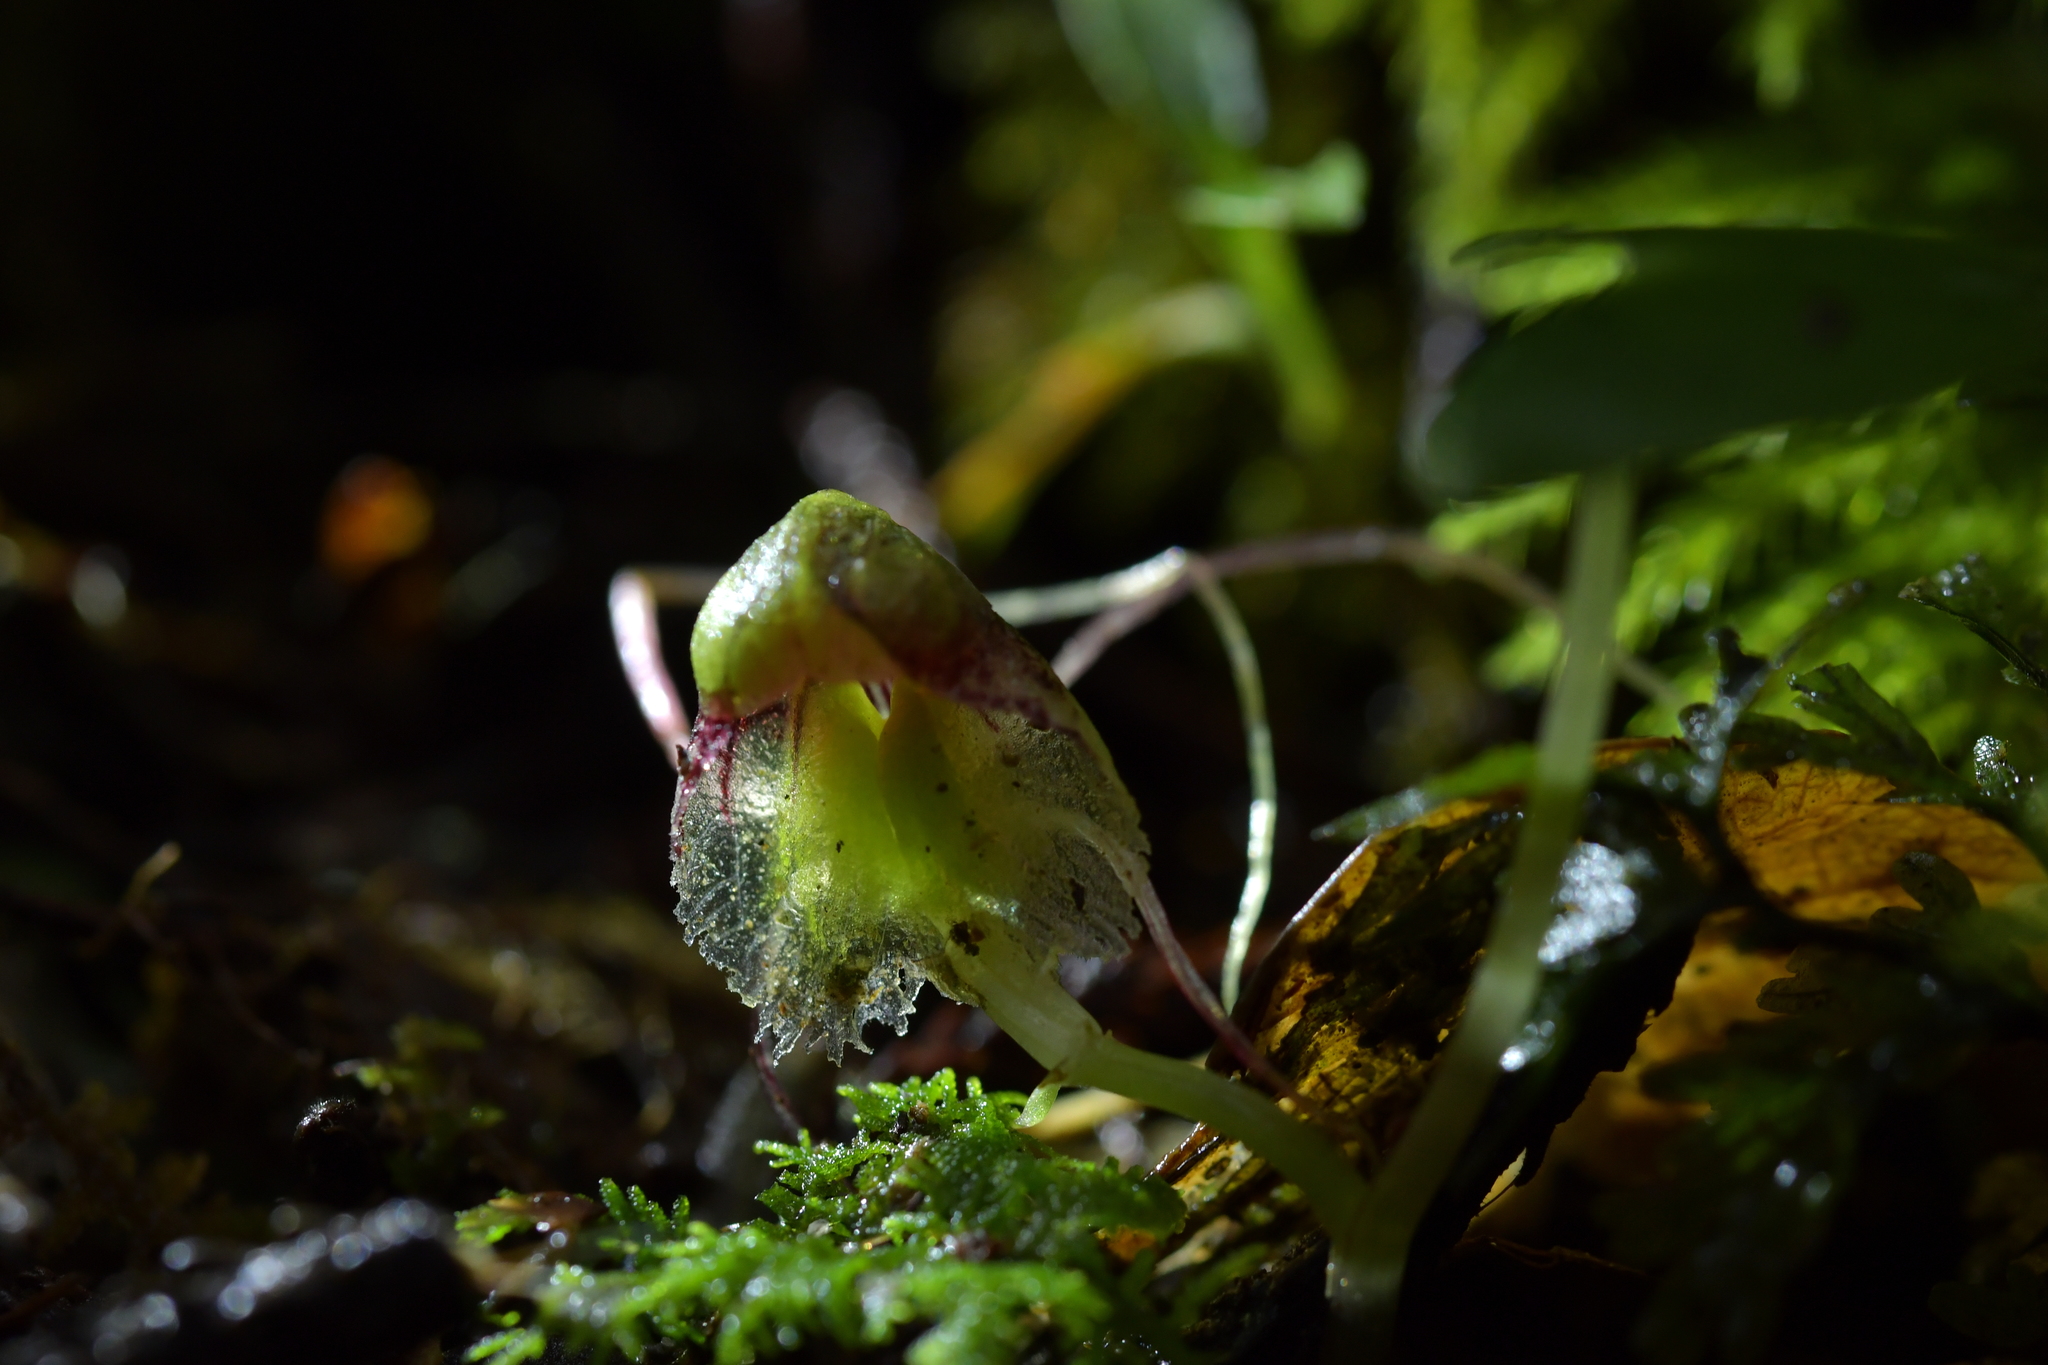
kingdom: Plantae
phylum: Tracheophyta
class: Liliopsida
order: Asparagales
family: Orchidaceae
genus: Corybas
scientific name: Corybas vitreus
